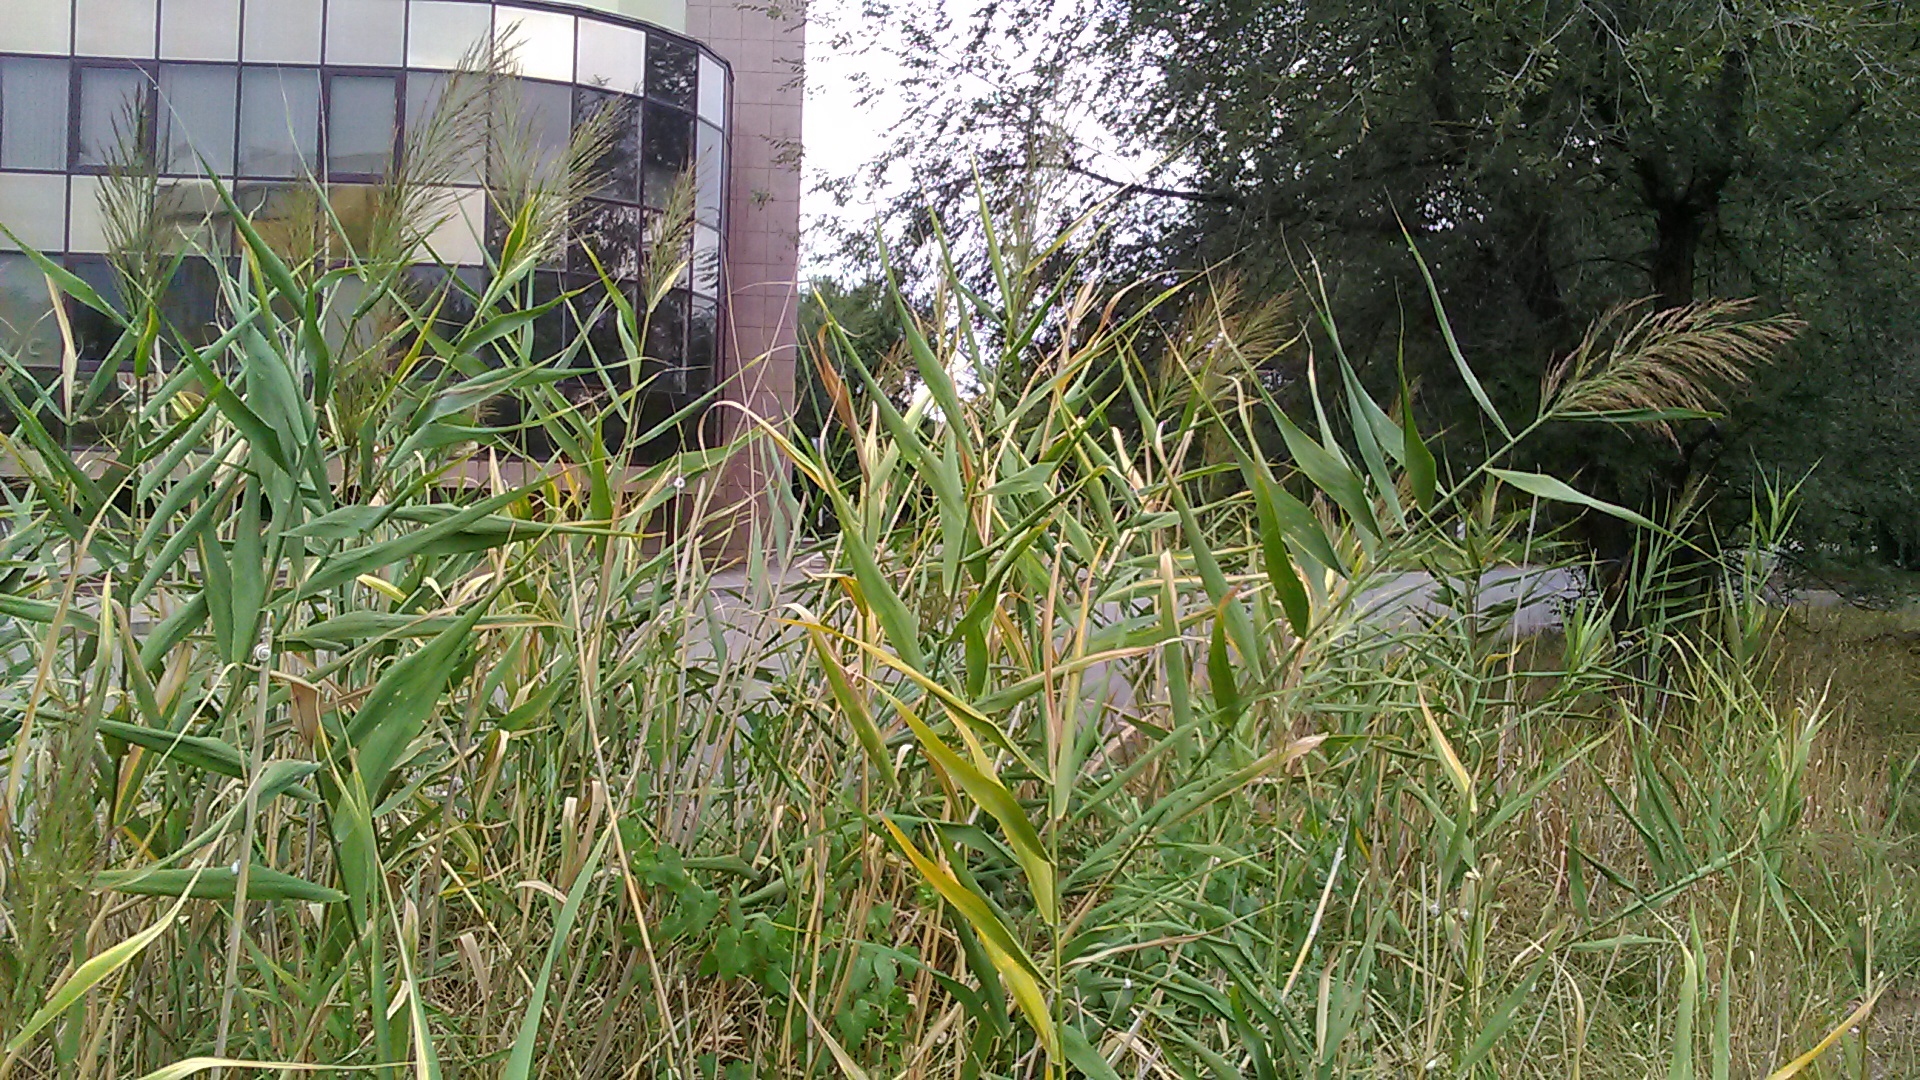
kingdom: Plantae
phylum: Tracheophyta
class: Liliopsida
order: Poales
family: Poaceae
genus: Phragmites
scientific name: Phragmites australis
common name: Common reed
